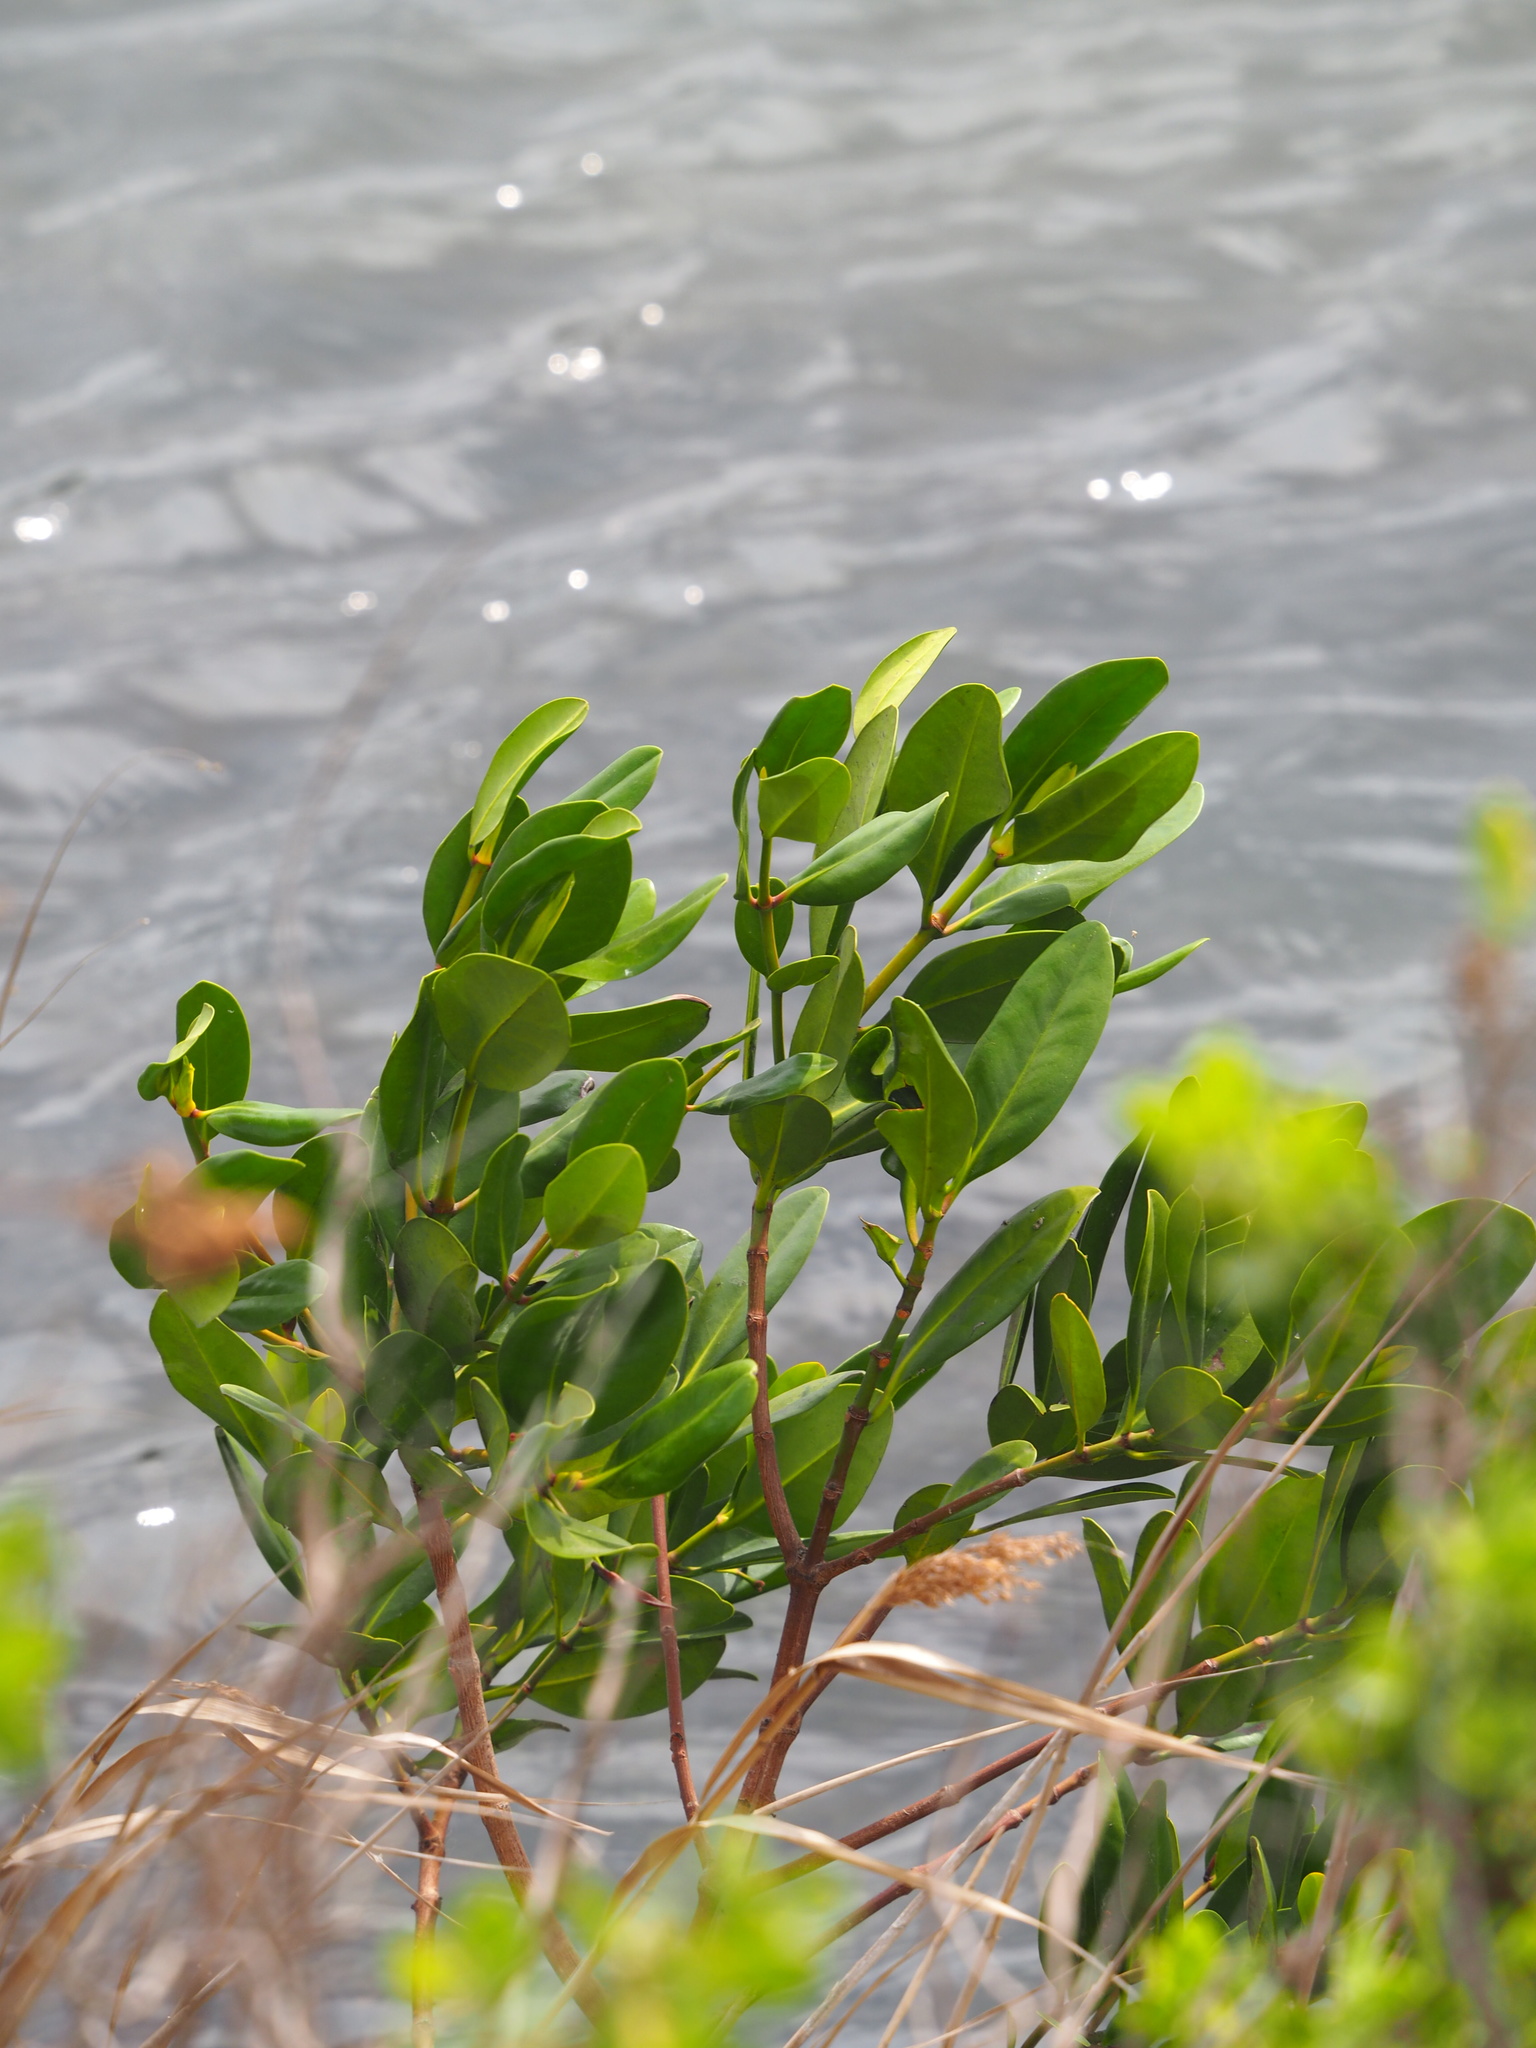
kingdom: Plantae
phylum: Tracheophyta
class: Magnoliopsida
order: Malpighiales
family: Rhizophoraceae
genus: Kandelia
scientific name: Kandelia obovata
